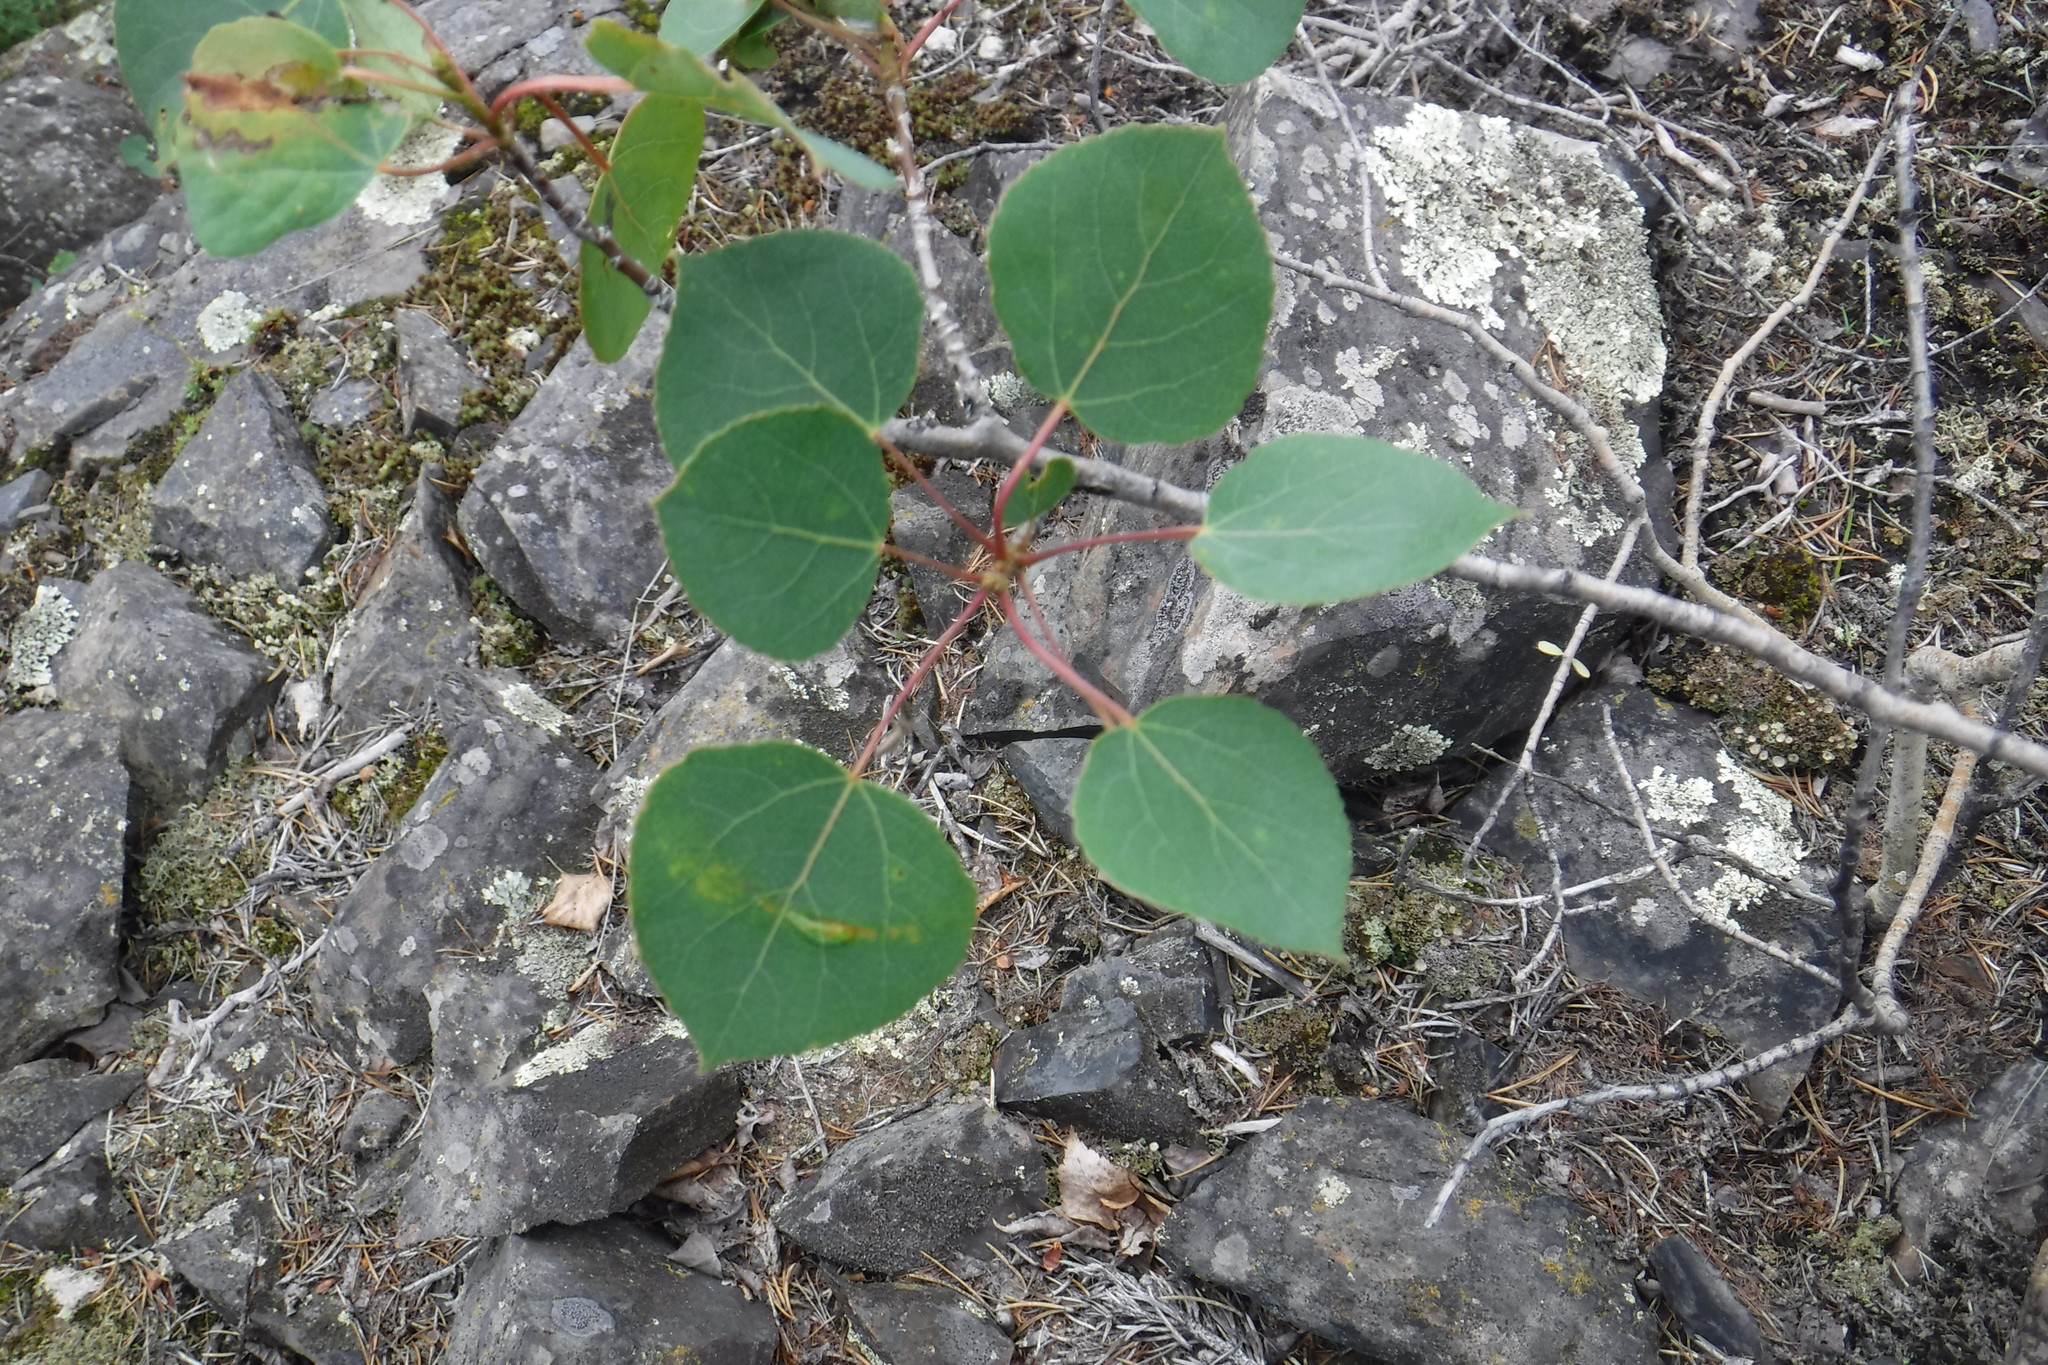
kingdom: Plantae
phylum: Tracheophyta
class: Magnoliopsida
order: Malpighiales
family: Salicaceae
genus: Populus
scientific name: Populus tremuloides
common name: Quaking aspen
